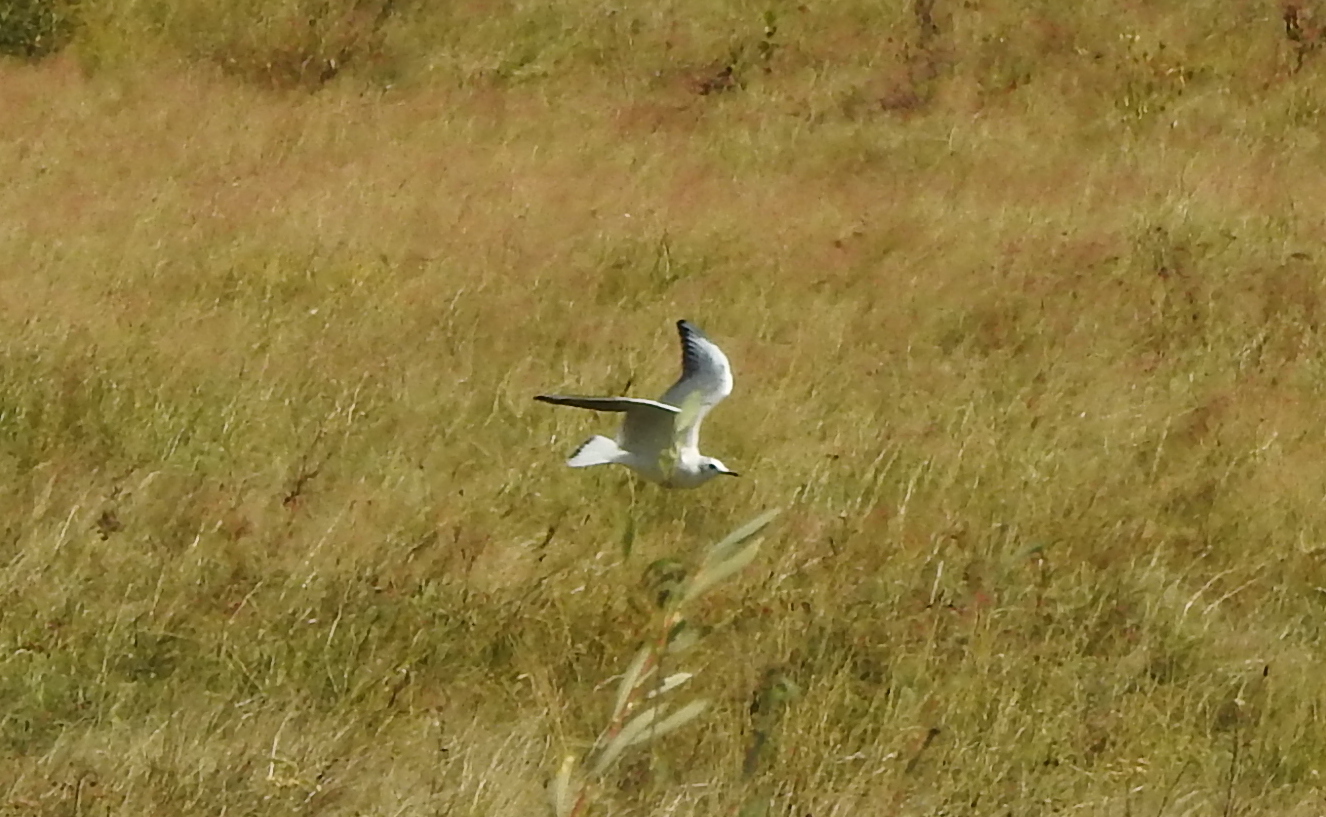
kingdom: Animalia
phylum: Chordata
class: Aves
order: Charadriiformes
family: Laridae
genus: Chroicocephalus
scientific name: Chroicocephalus ridibundus
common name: Black-headed gull
